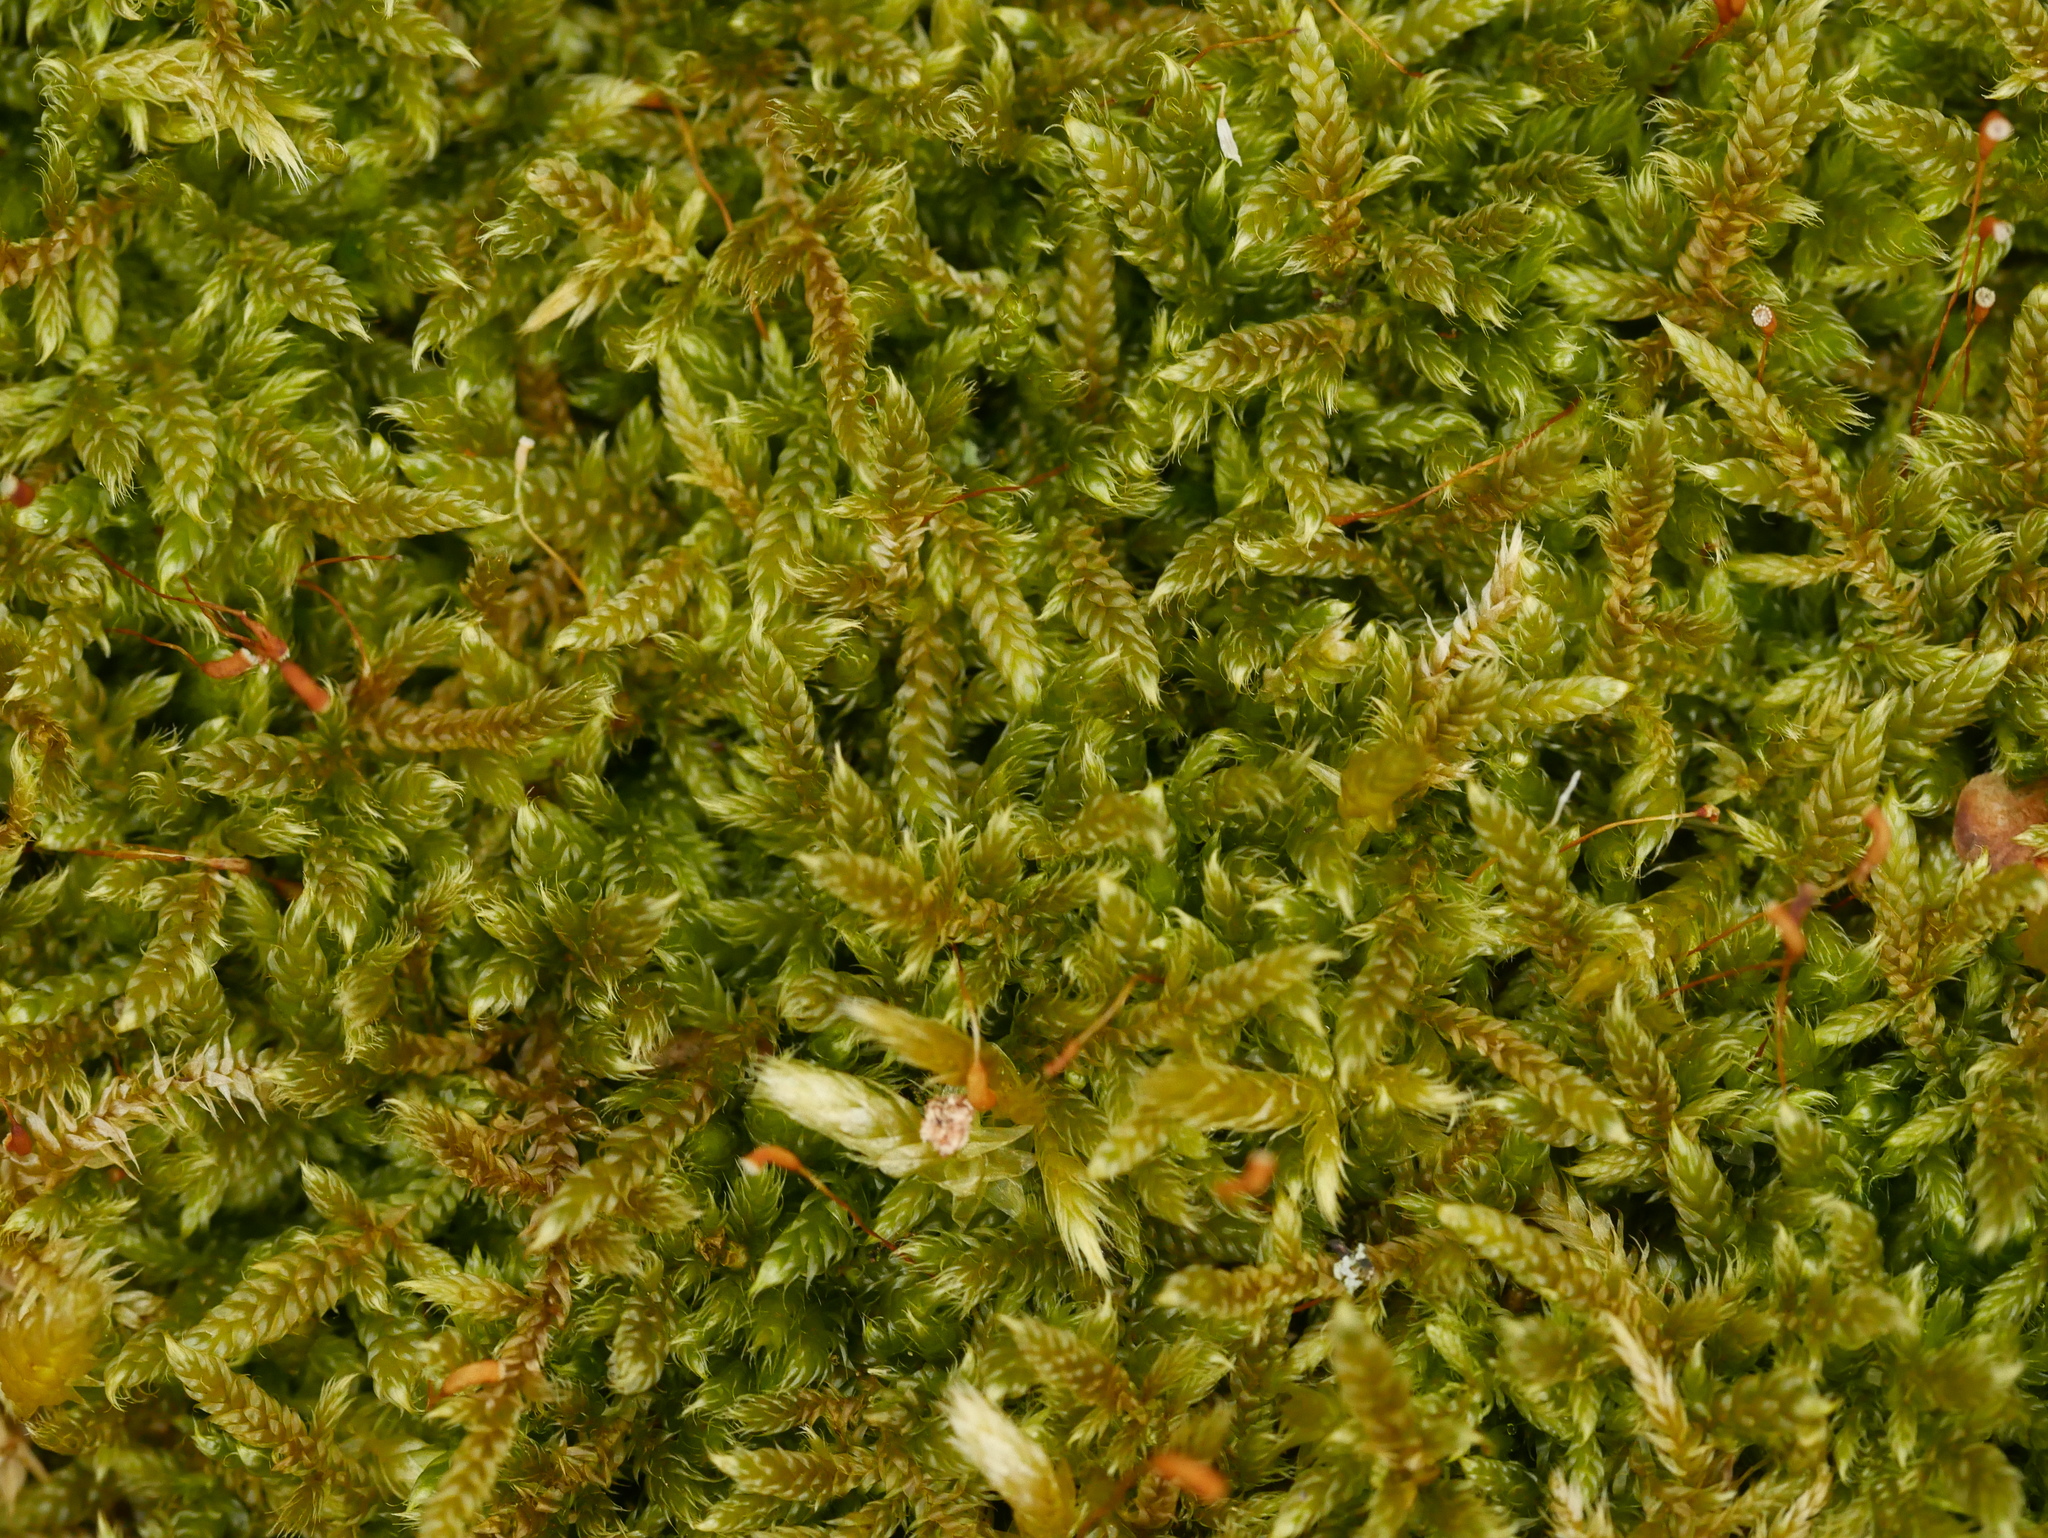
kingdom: Plantae
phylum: Bryophyta
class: Bryopsida
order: Hypnales
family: Hypnaceae
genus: Hypnum
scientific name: Hypnum cupressiforme
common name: Cypress-leaved plait-moss
